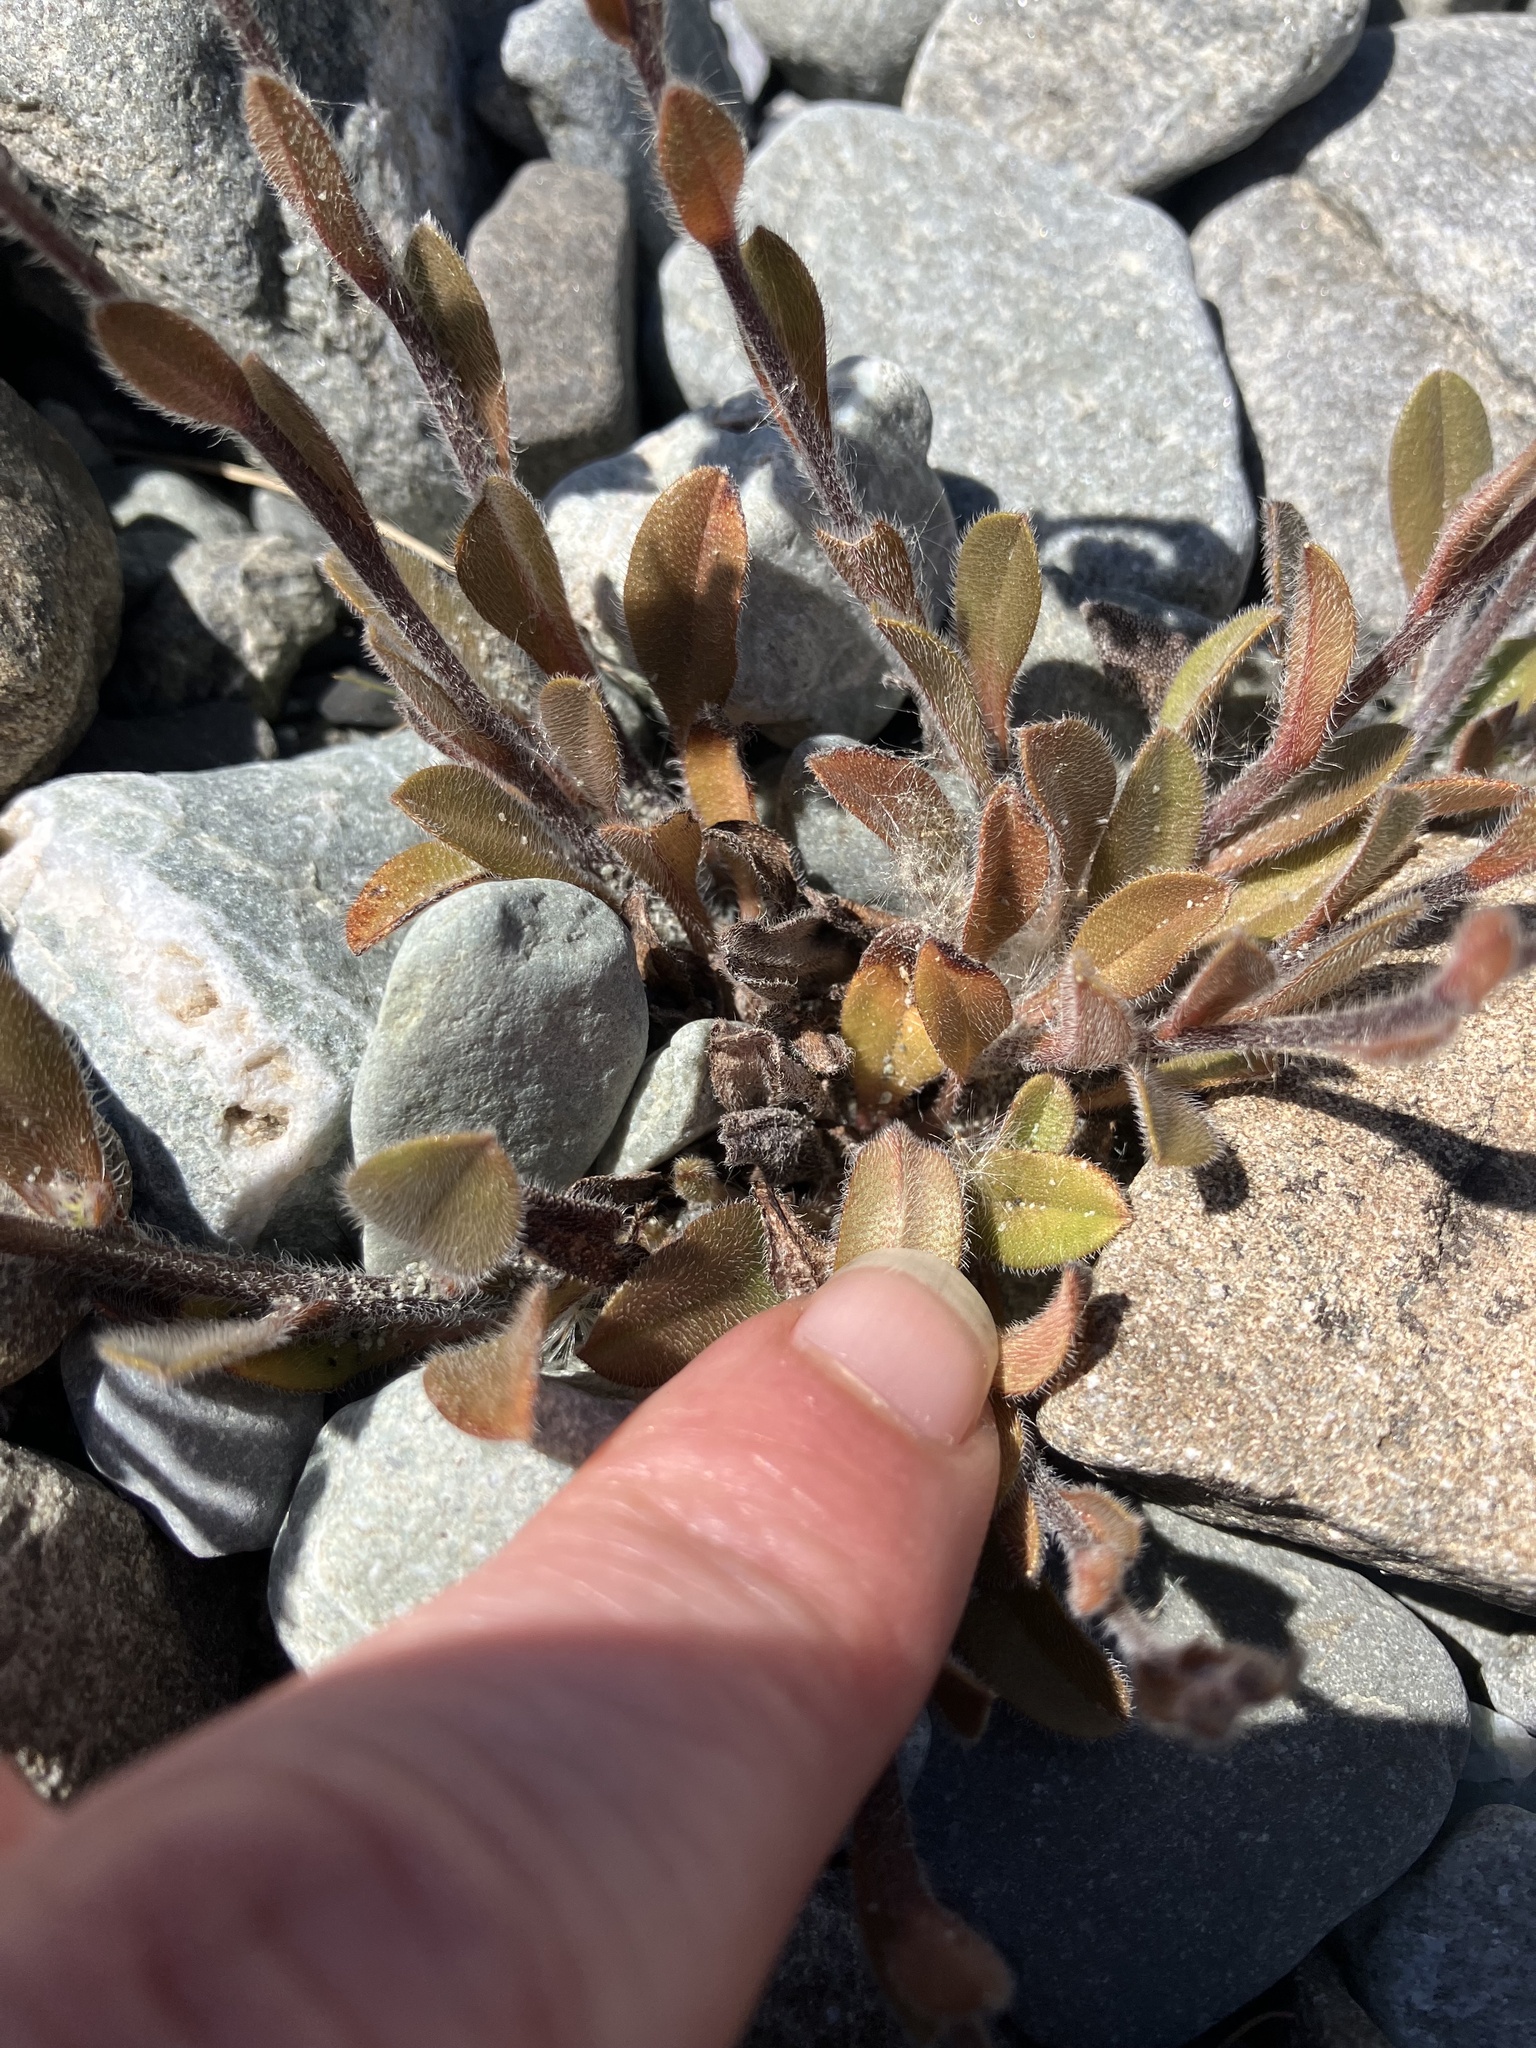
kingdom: Plantae
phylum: Tracheophyta
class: Magnoliopsida
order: Boraginales
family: Boraginaceae
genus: Myosotis
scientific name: Myosotis australis
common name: Australian forget-me-not
